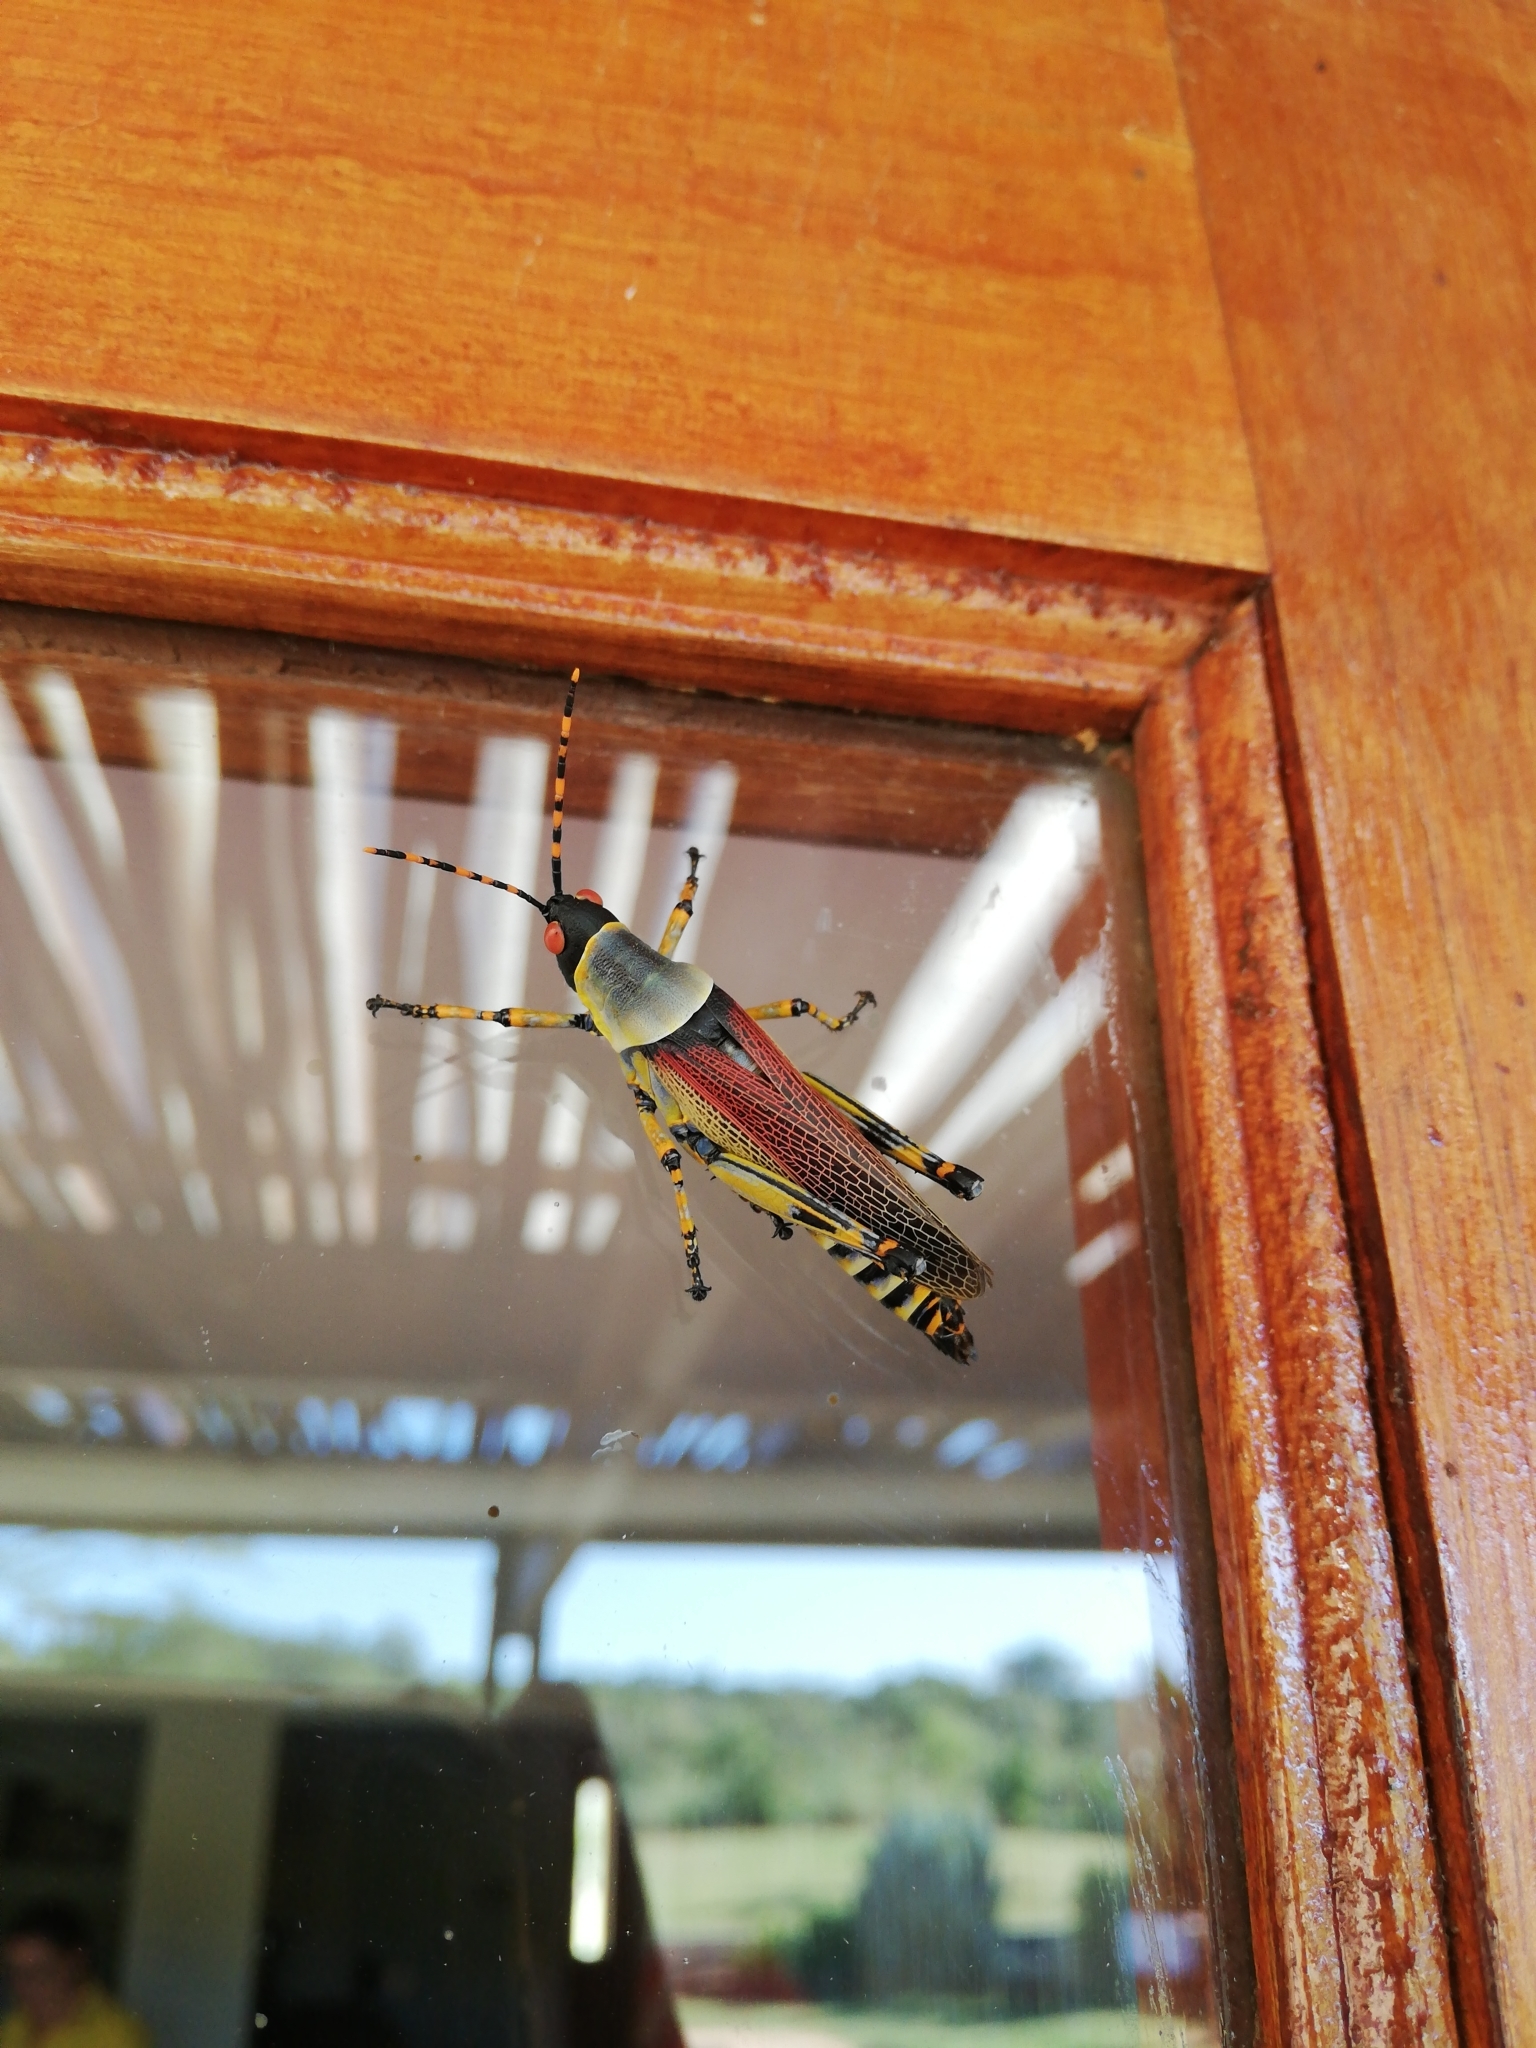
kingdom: Animalia
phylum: Arthropoda
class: Insecta
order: Orthoptera
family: Pyrgomorphidae
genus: Zonocerus
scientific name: Zonocerus elegans
